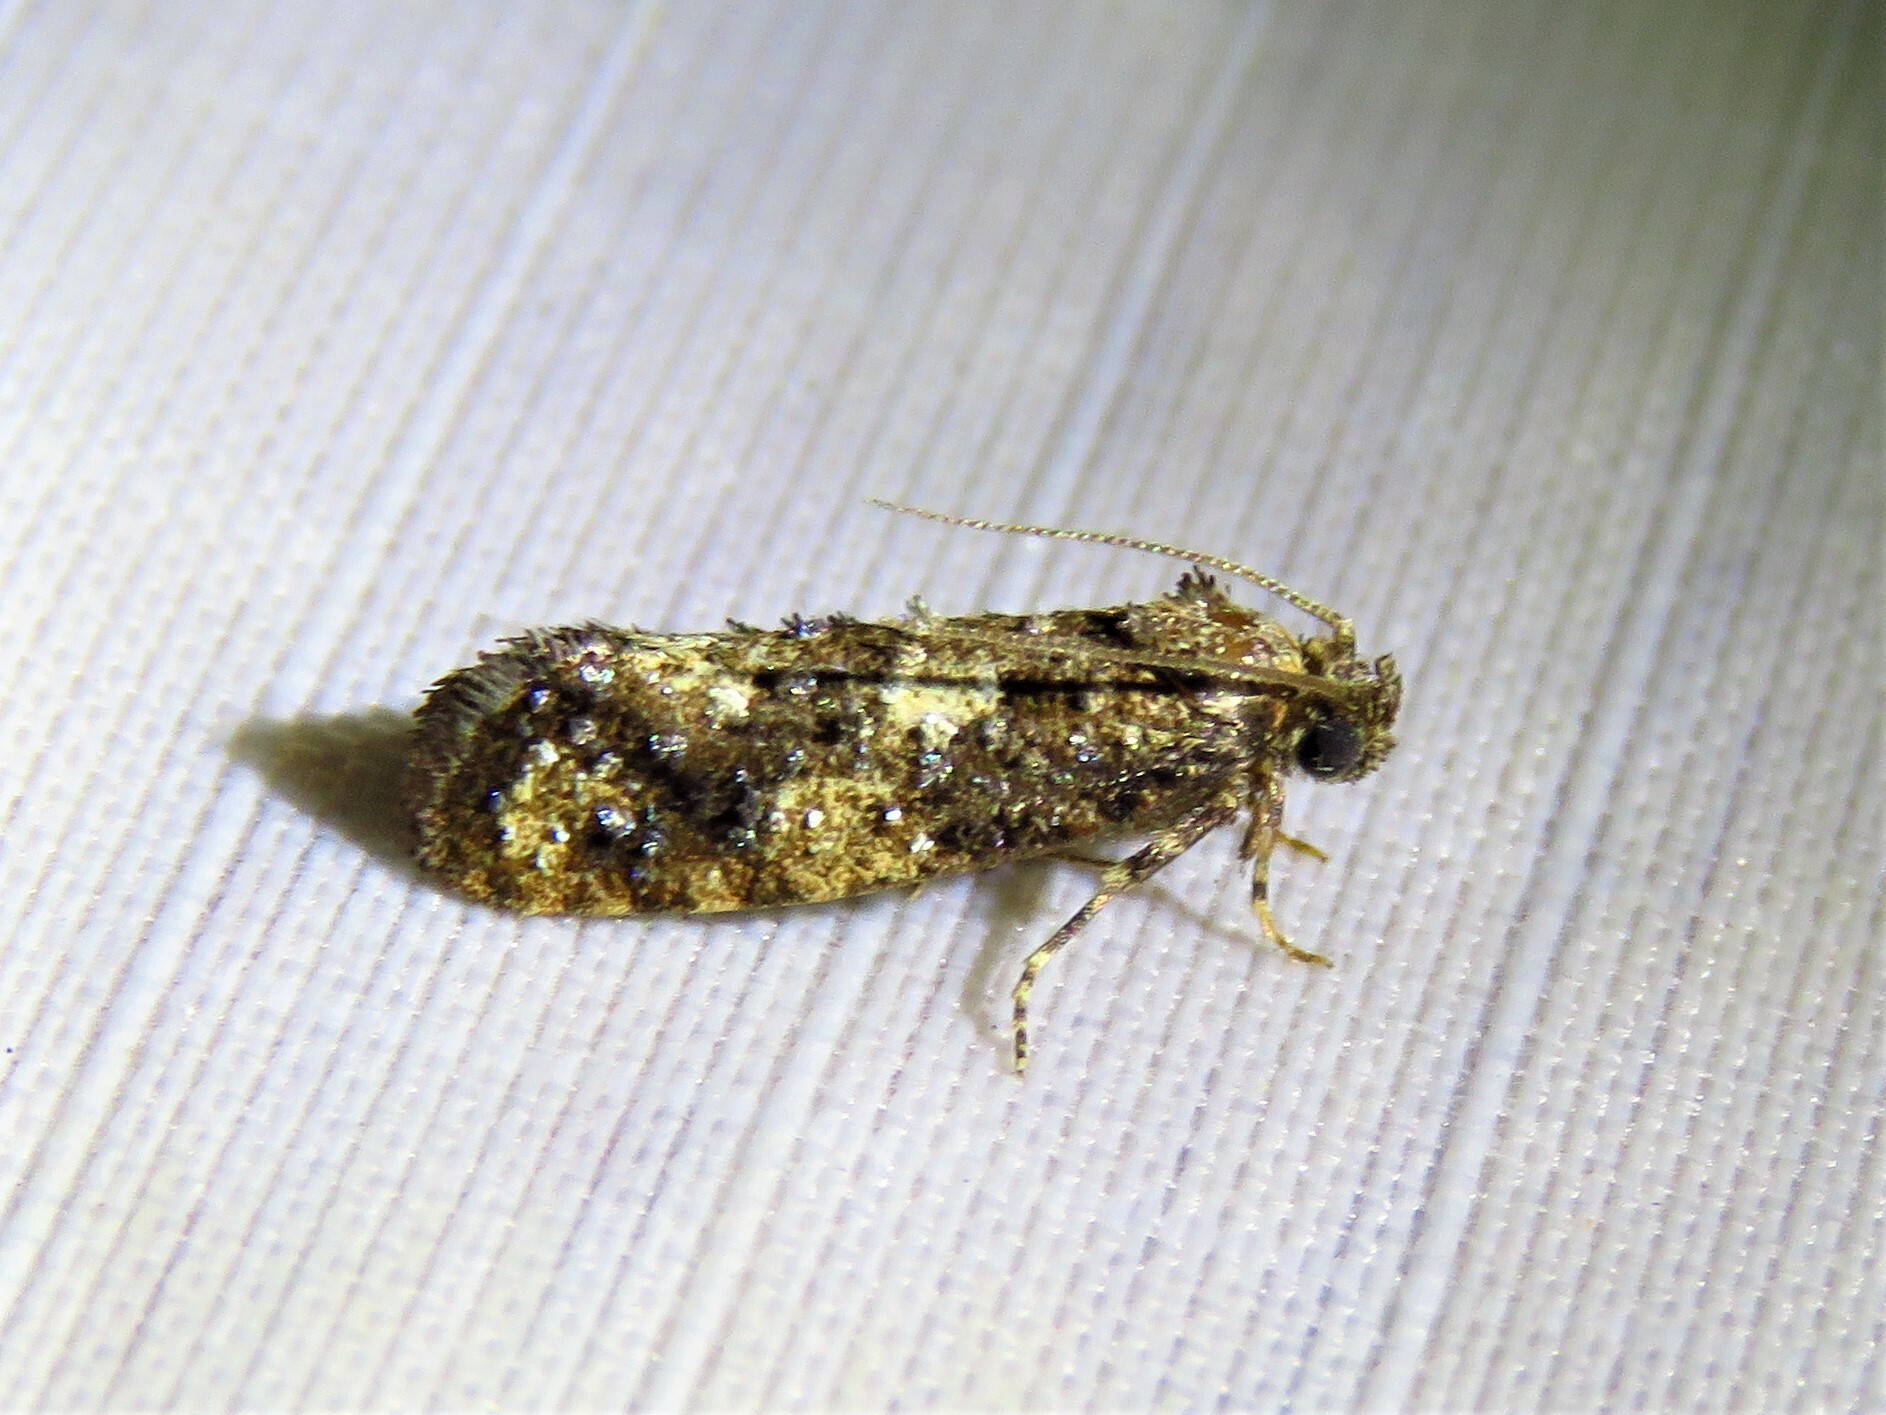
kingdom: Animalia
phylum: Arthropoda
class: Insecta
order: Lepidoptera
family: Tineidae
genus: Acrolophus
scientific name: Acrolophus cressoni
